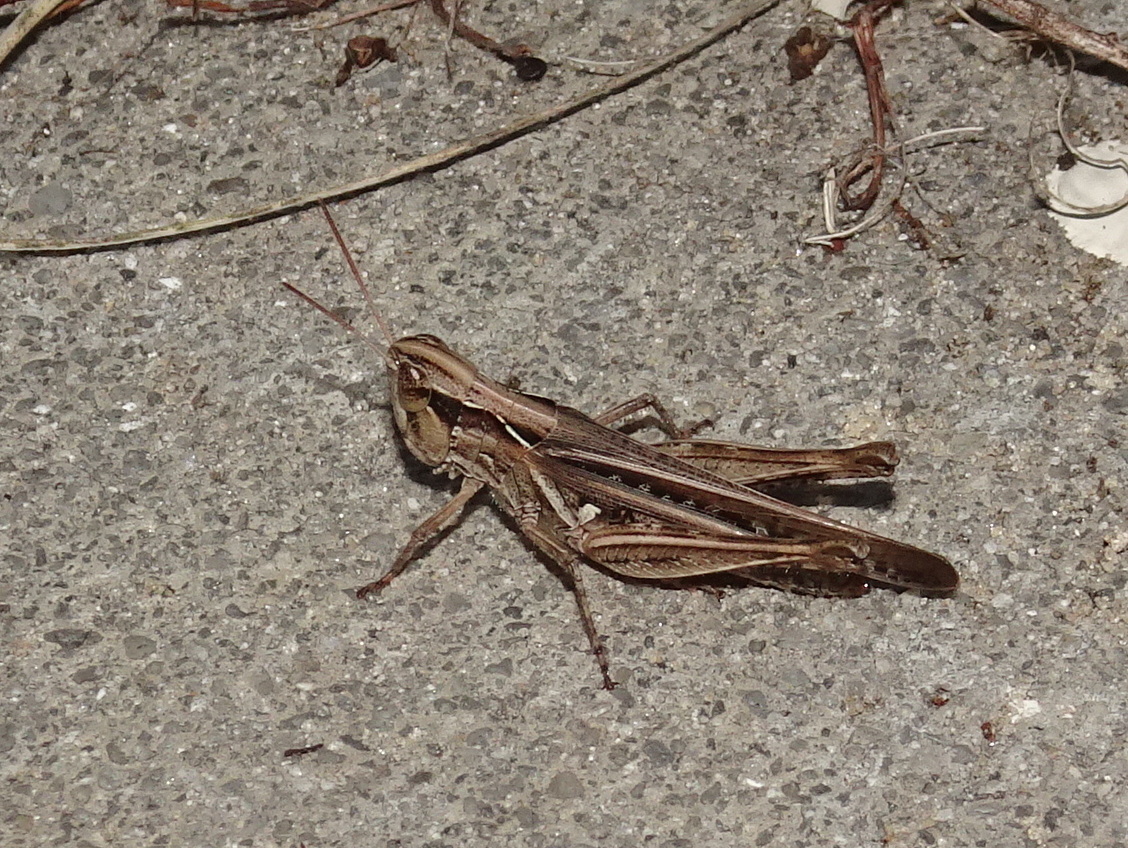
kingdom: Animalia
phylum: Arthropoda
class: Insecta
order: Orthoptera
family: Acrididae
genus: Orphulella
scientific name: Orphulella pelidna
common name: Spotted-wing grasshopper
